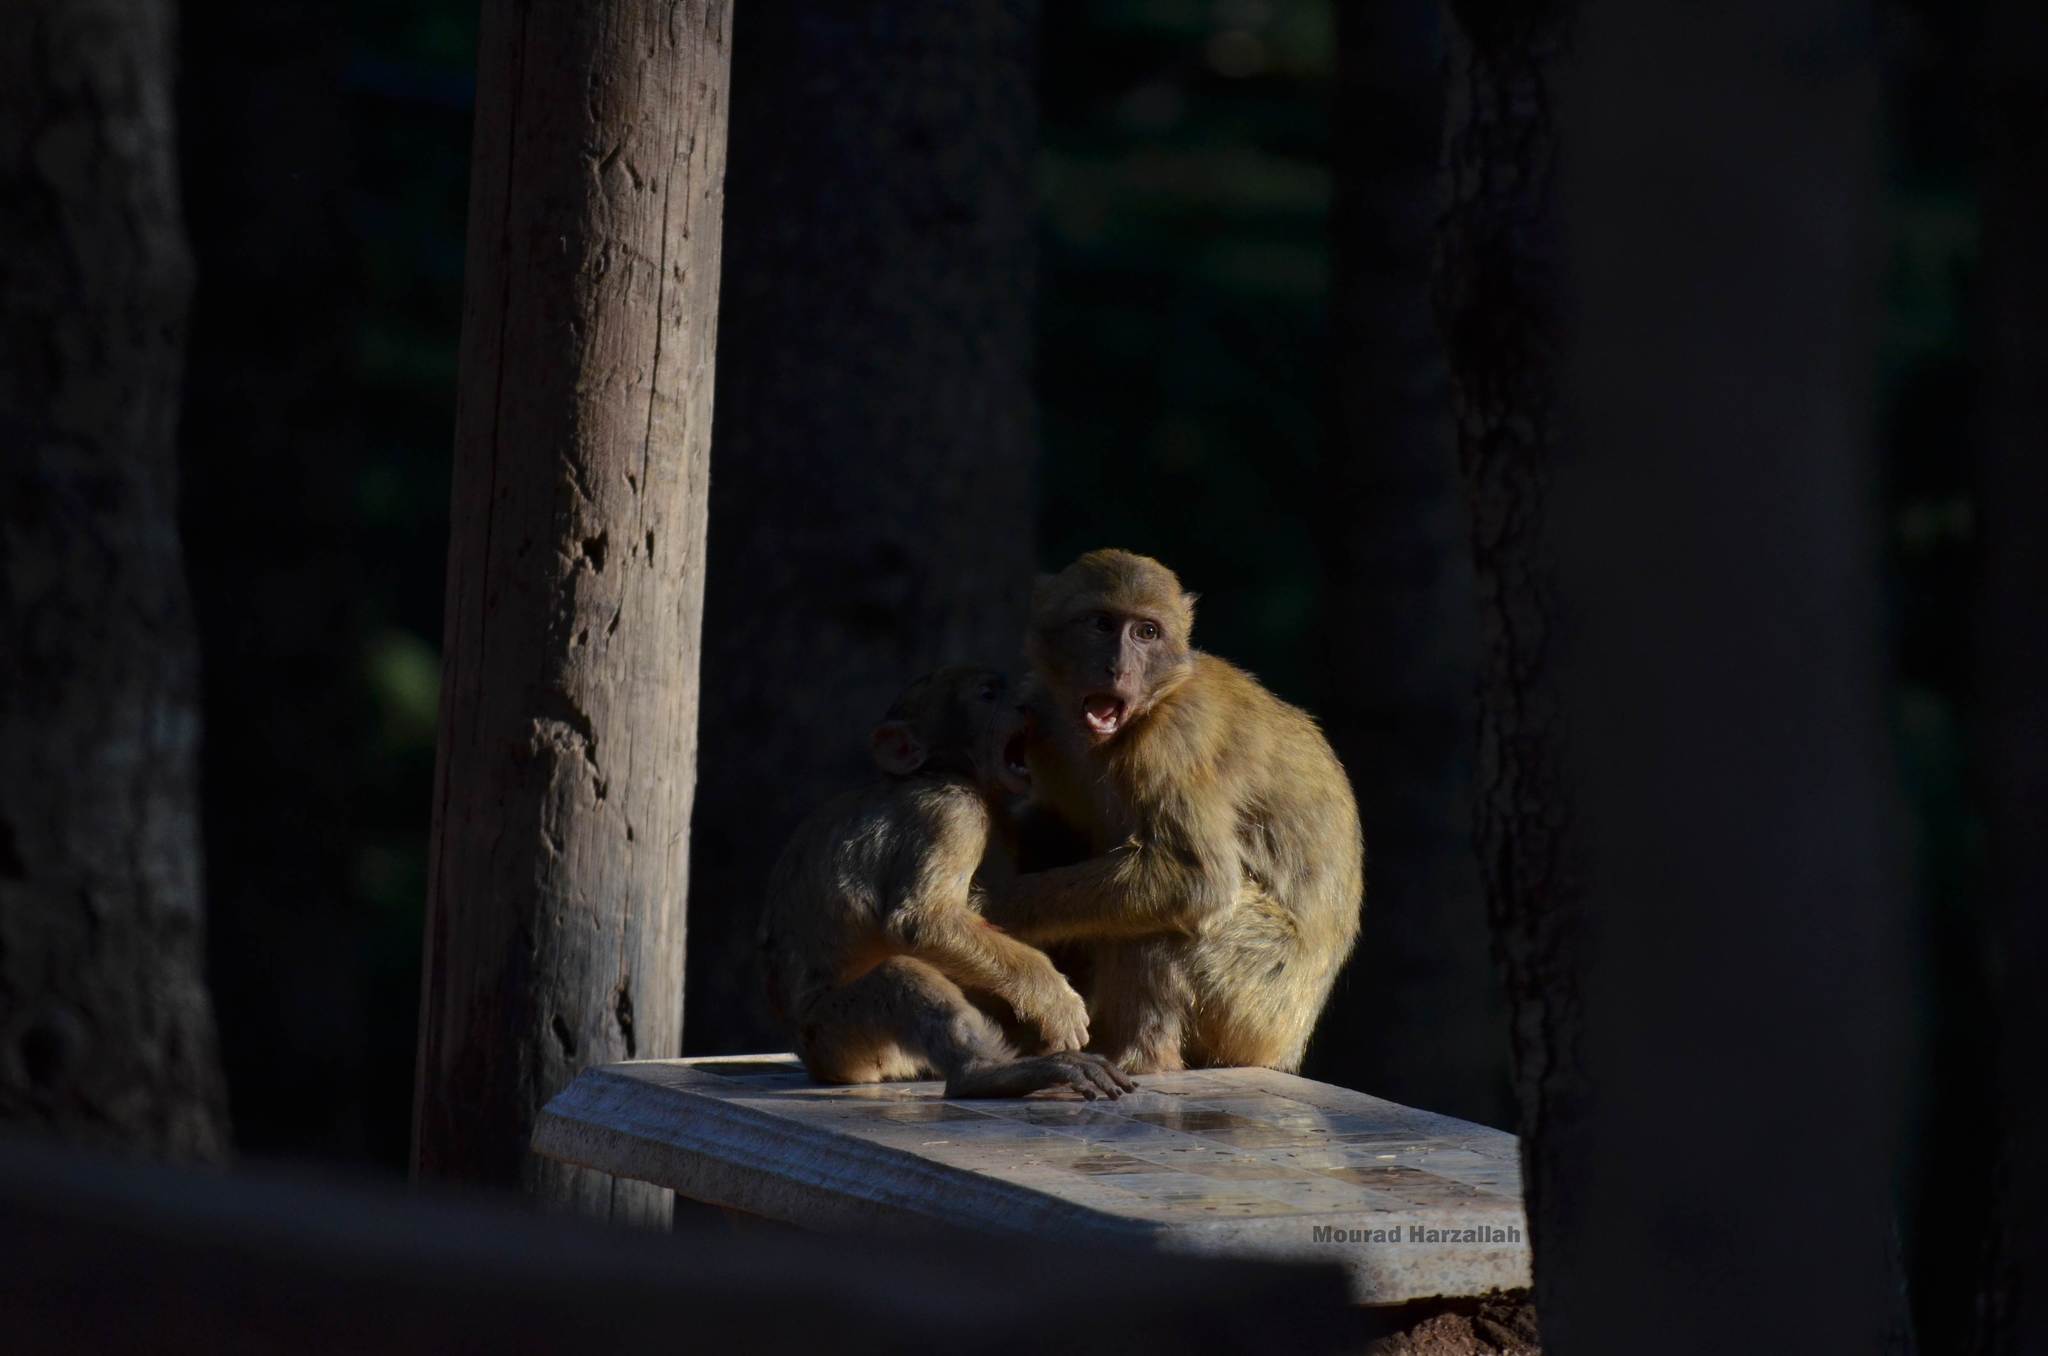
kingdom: Animalia
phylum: Chordata
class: Mammalia
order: Primates
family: Cercopithecidae
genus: Macaca
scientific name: Macaca sylvanus
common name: Barbary macaque
